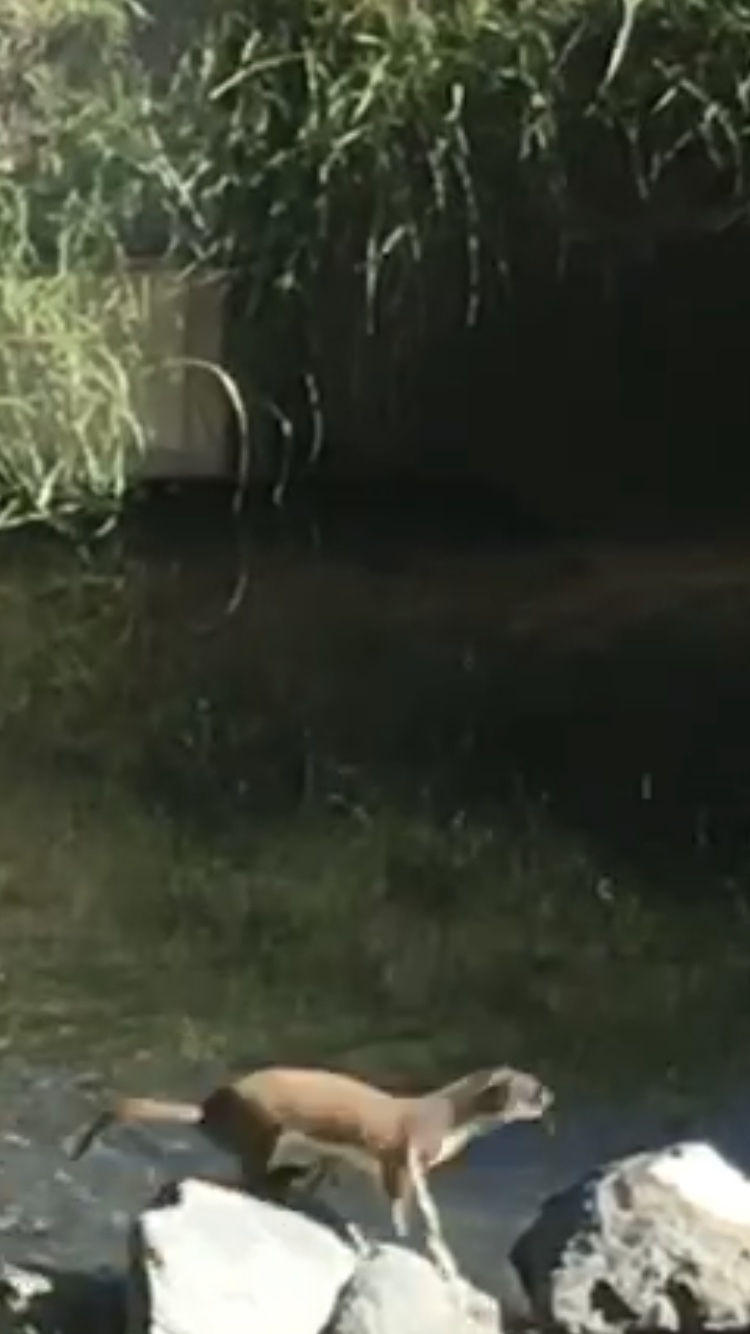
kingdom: Animalia
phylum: Chordata
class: Mammalia
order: Carnivora
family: Mustelidae
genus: Mustela
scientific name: Mustela erminea
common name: Stoat
